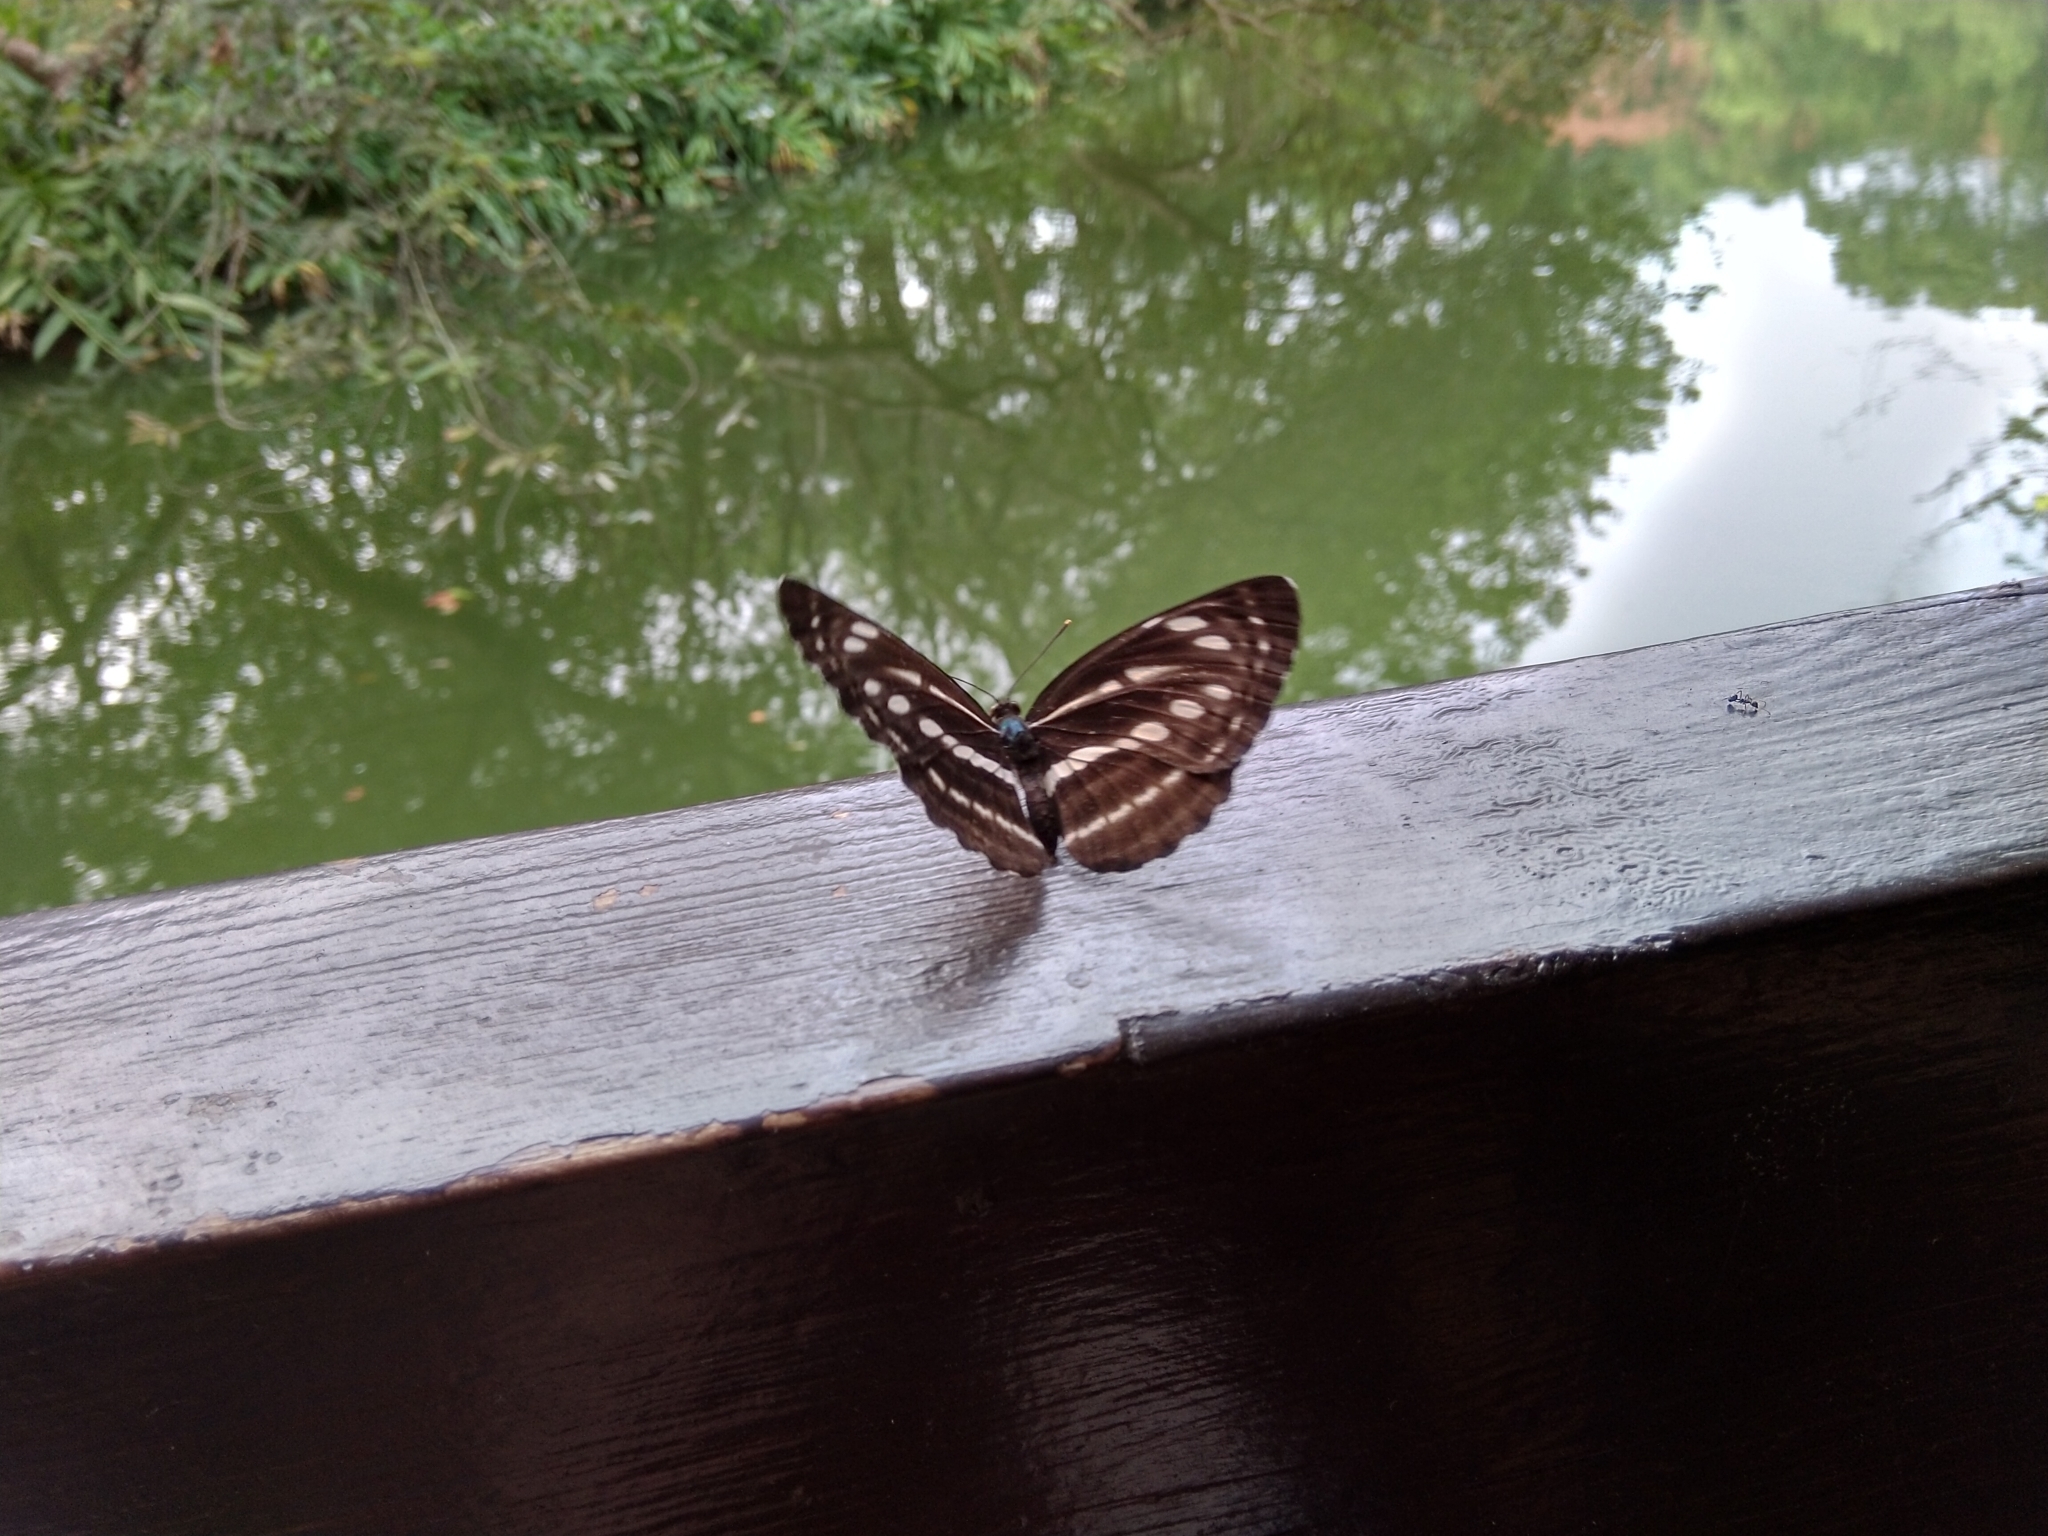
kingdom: Animalia
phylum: Arthropoda
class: Insecta
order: Lepidoptera
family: Nymphalidae
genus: Neptis
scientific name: Neptis nata
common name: Sullied brown sailer
